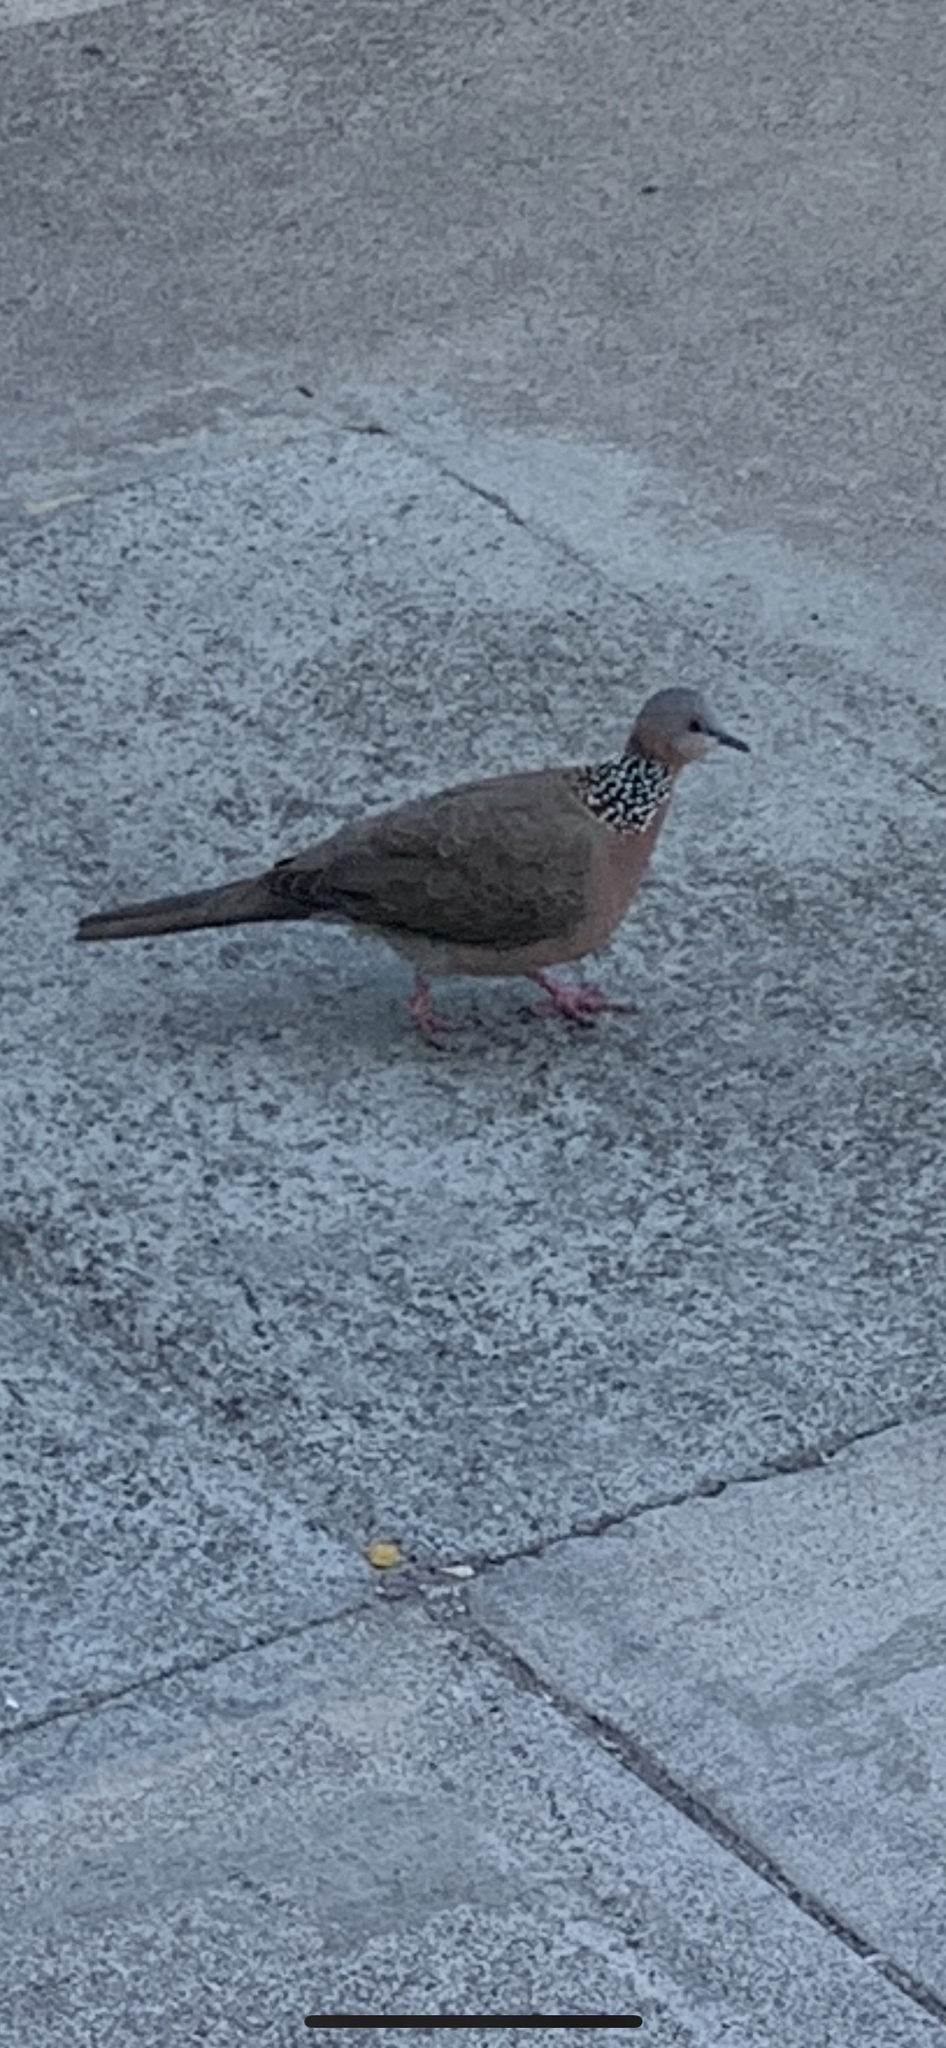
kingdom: Animalia
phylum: Chordata
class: Aves
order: Columbiformes
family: Columbidae
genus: Spilopelia
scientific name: Spilopelia chinensis
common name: Spotted dove
